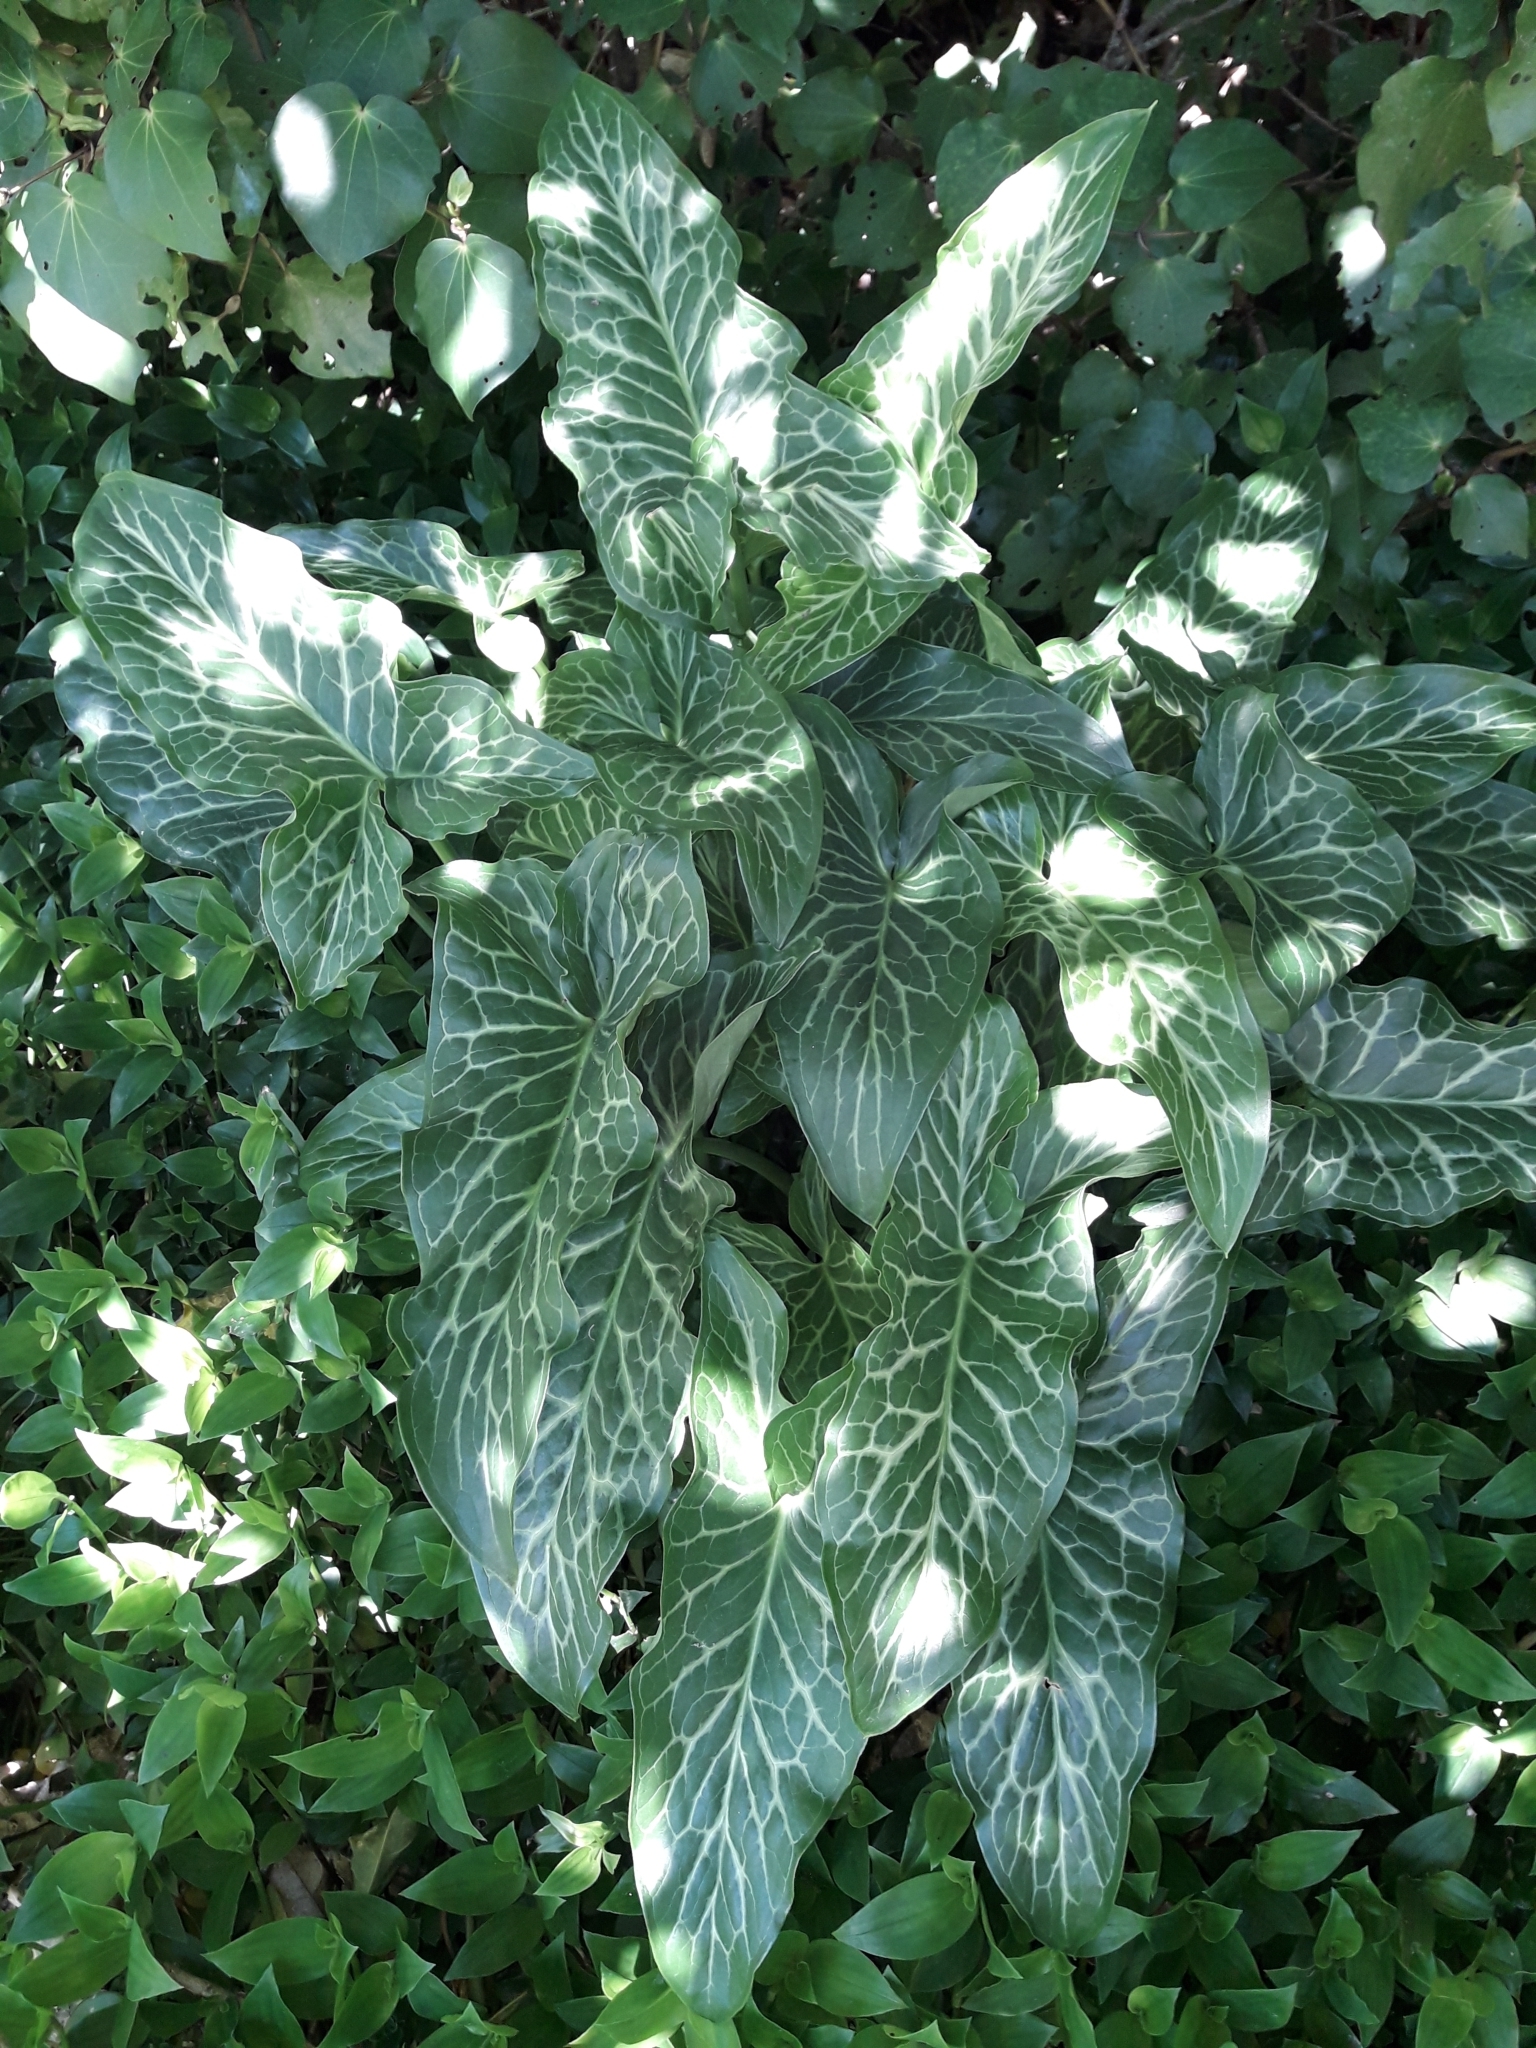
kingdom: Plantae
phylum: Tracheophyta
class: Liliopsida
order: Alismatales
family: Araceae
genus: Arum
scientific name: Arum italicum
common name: Italian lords-and-ladies
